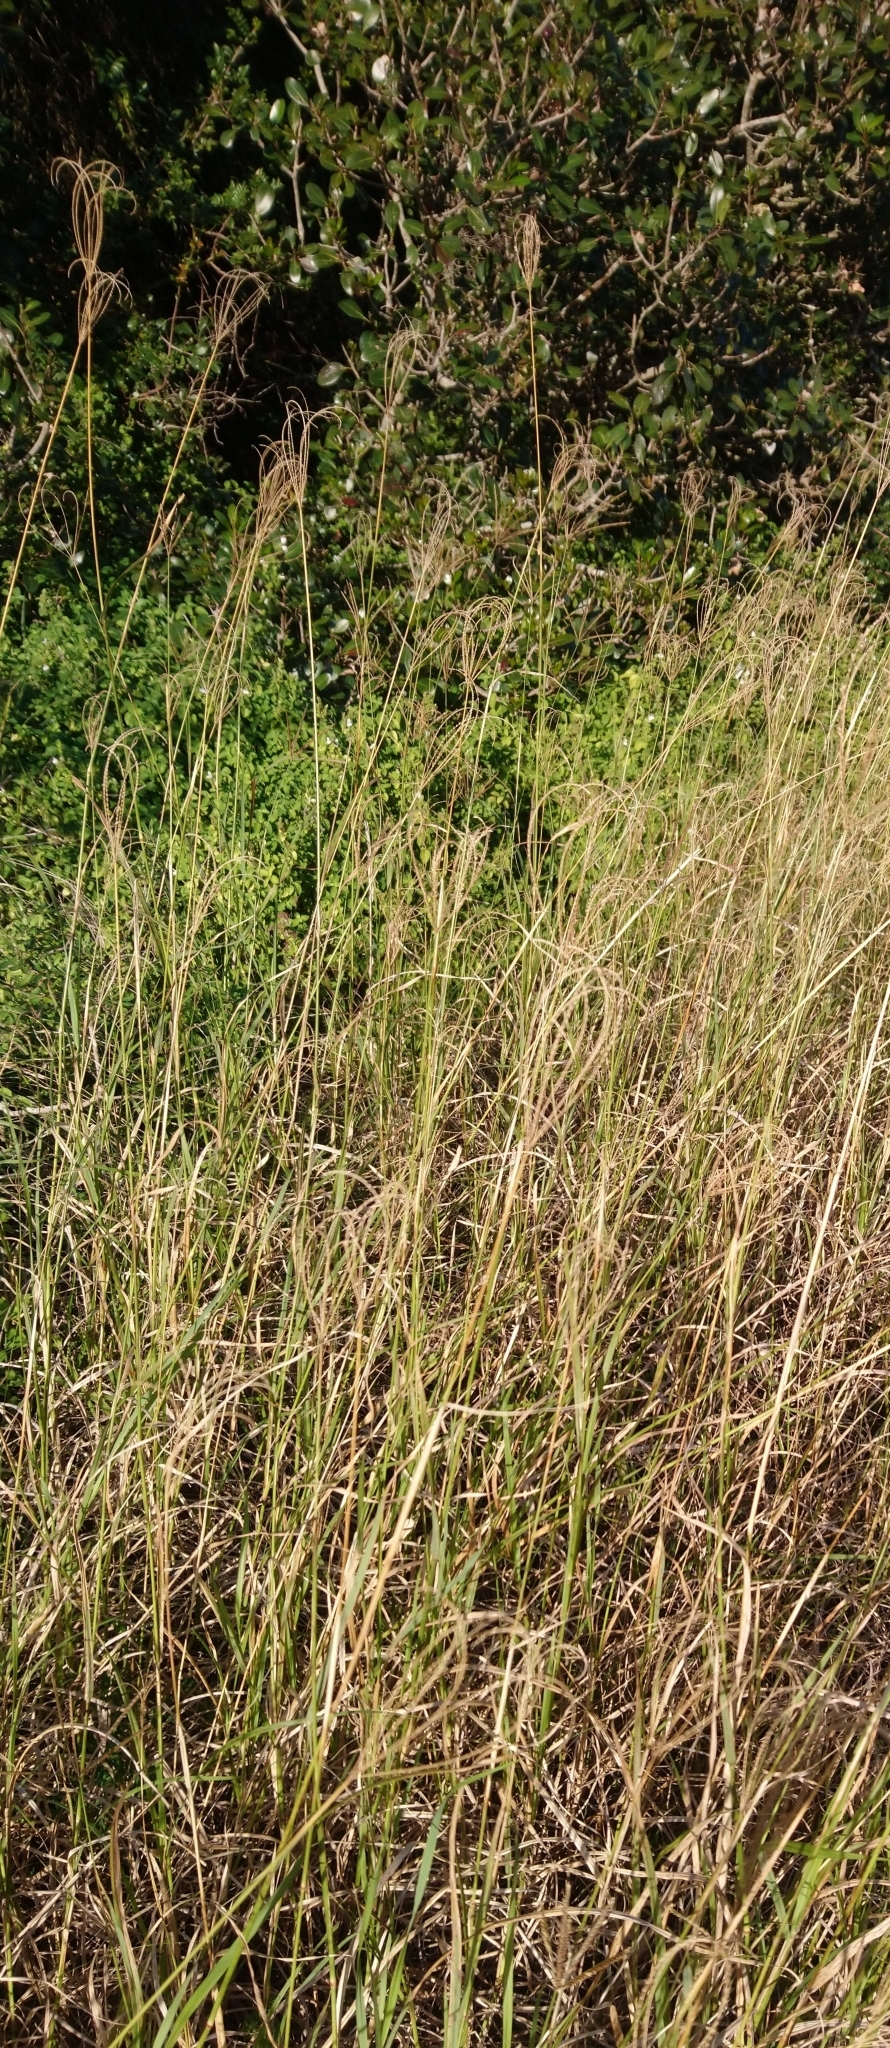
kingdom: Plantae
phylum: Tracheophyta
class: Liliopsida
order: Poales
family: Poaceae
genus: Chloris
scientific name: Chloris gayana
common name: Rhodes grass
